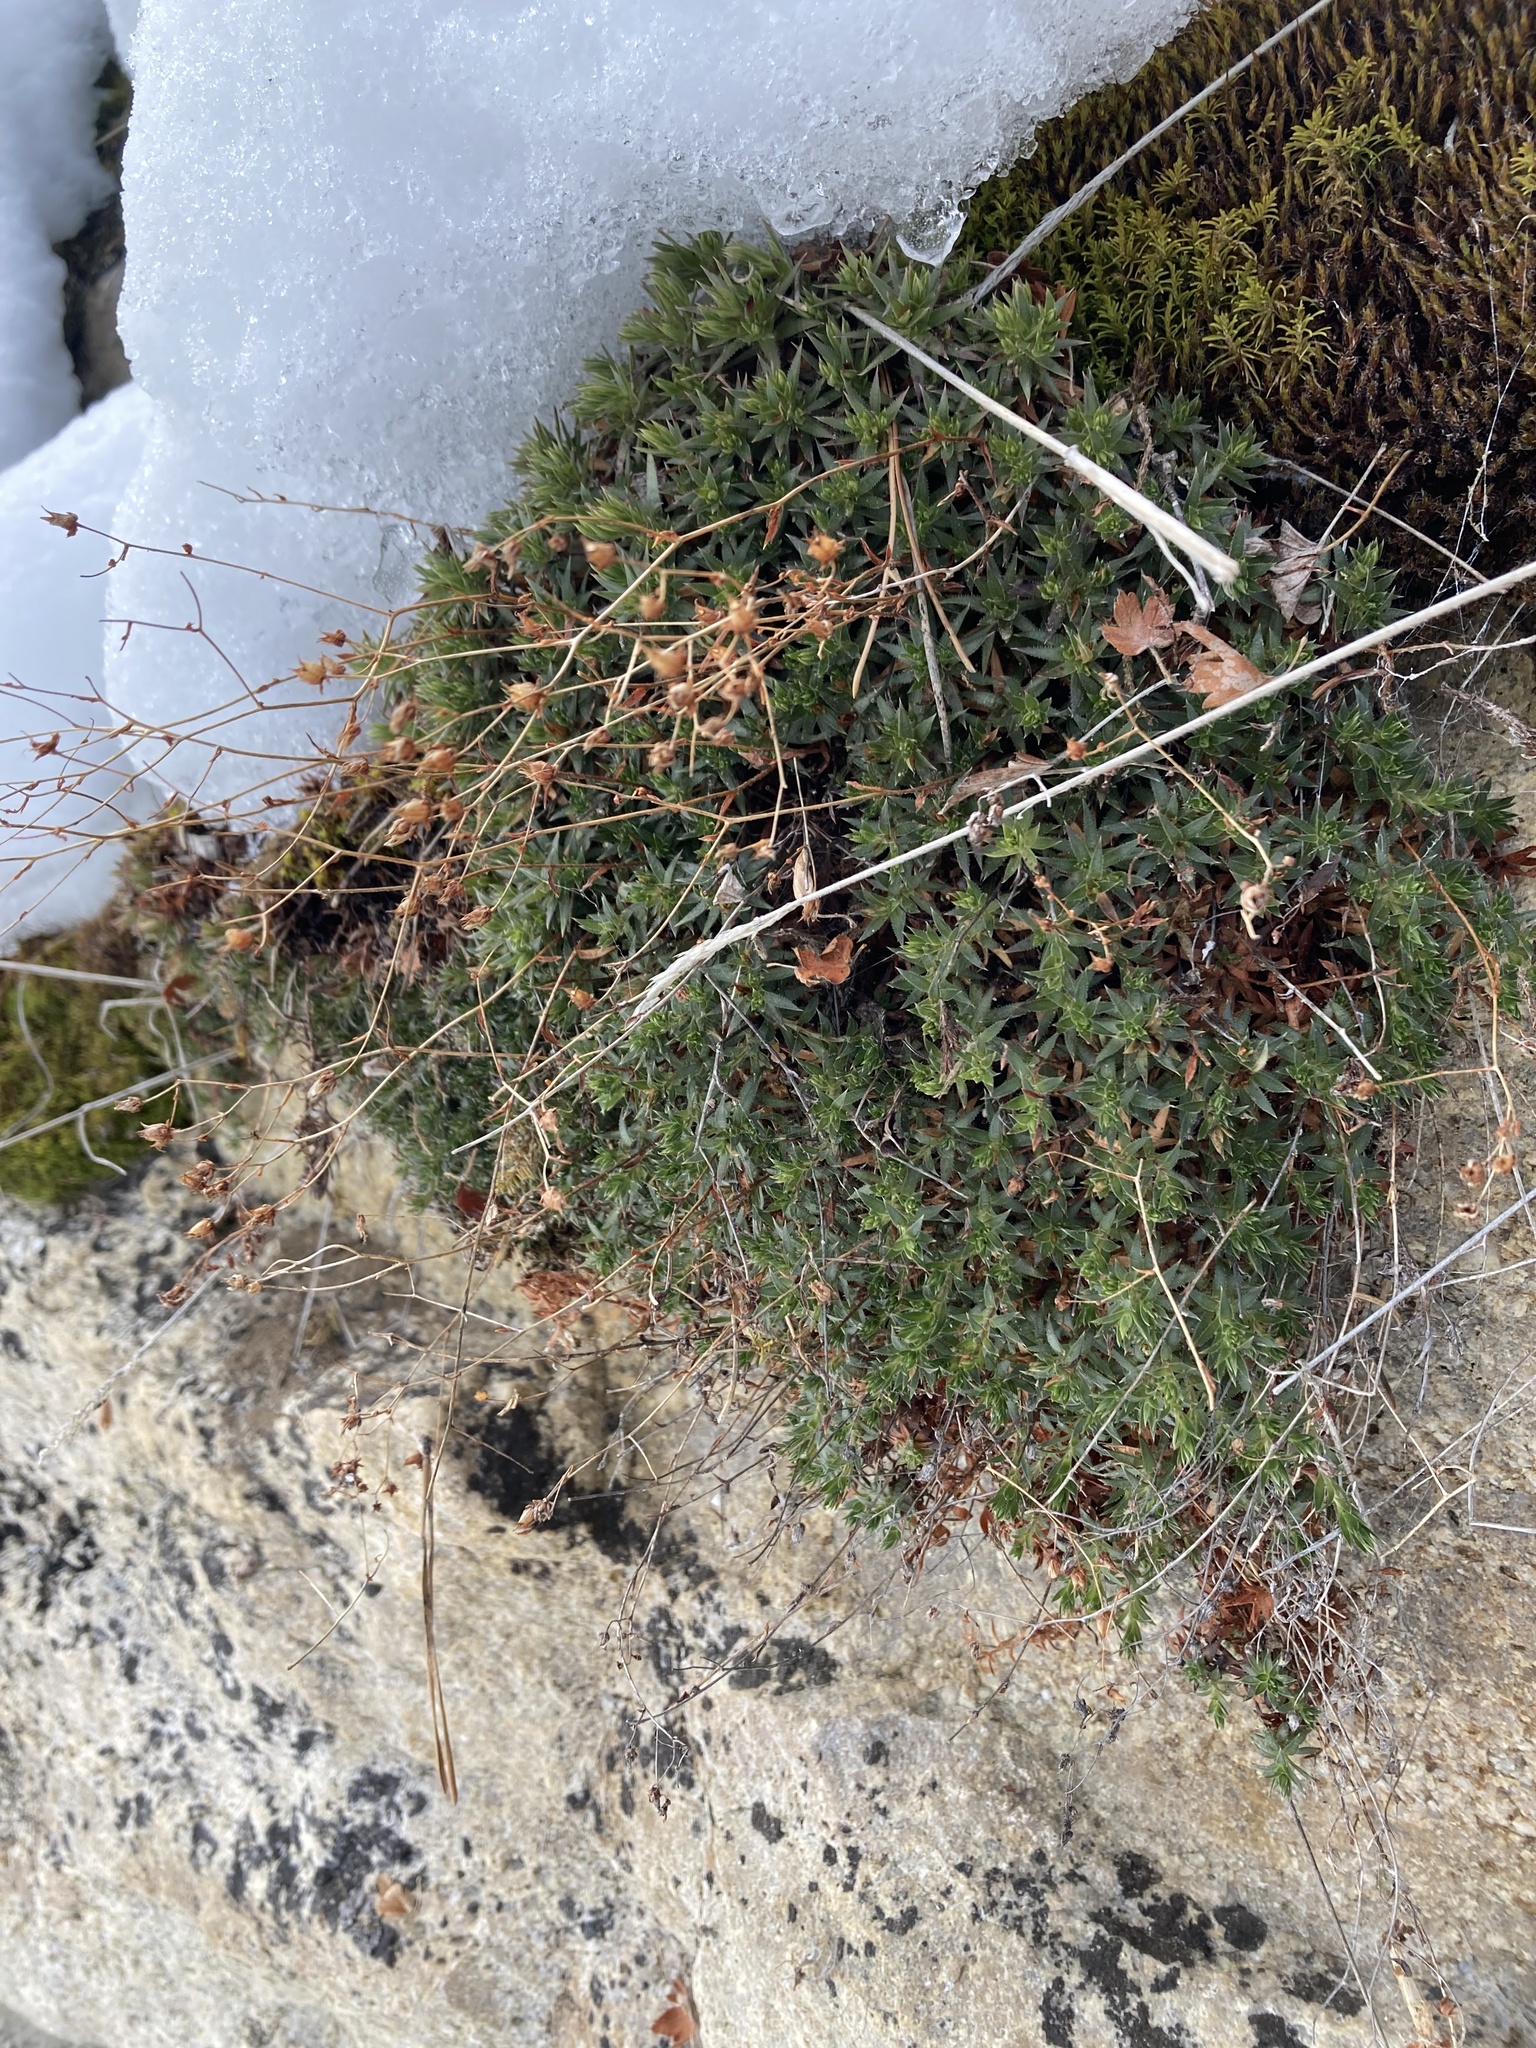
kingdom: Plantae
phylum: Tracheophyta
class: Magnoliopsida
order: Saxifragales
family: Saxifragaceae
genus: Saxifraga
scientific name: Saxifraga bronchialis
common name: Matted saxifrage
